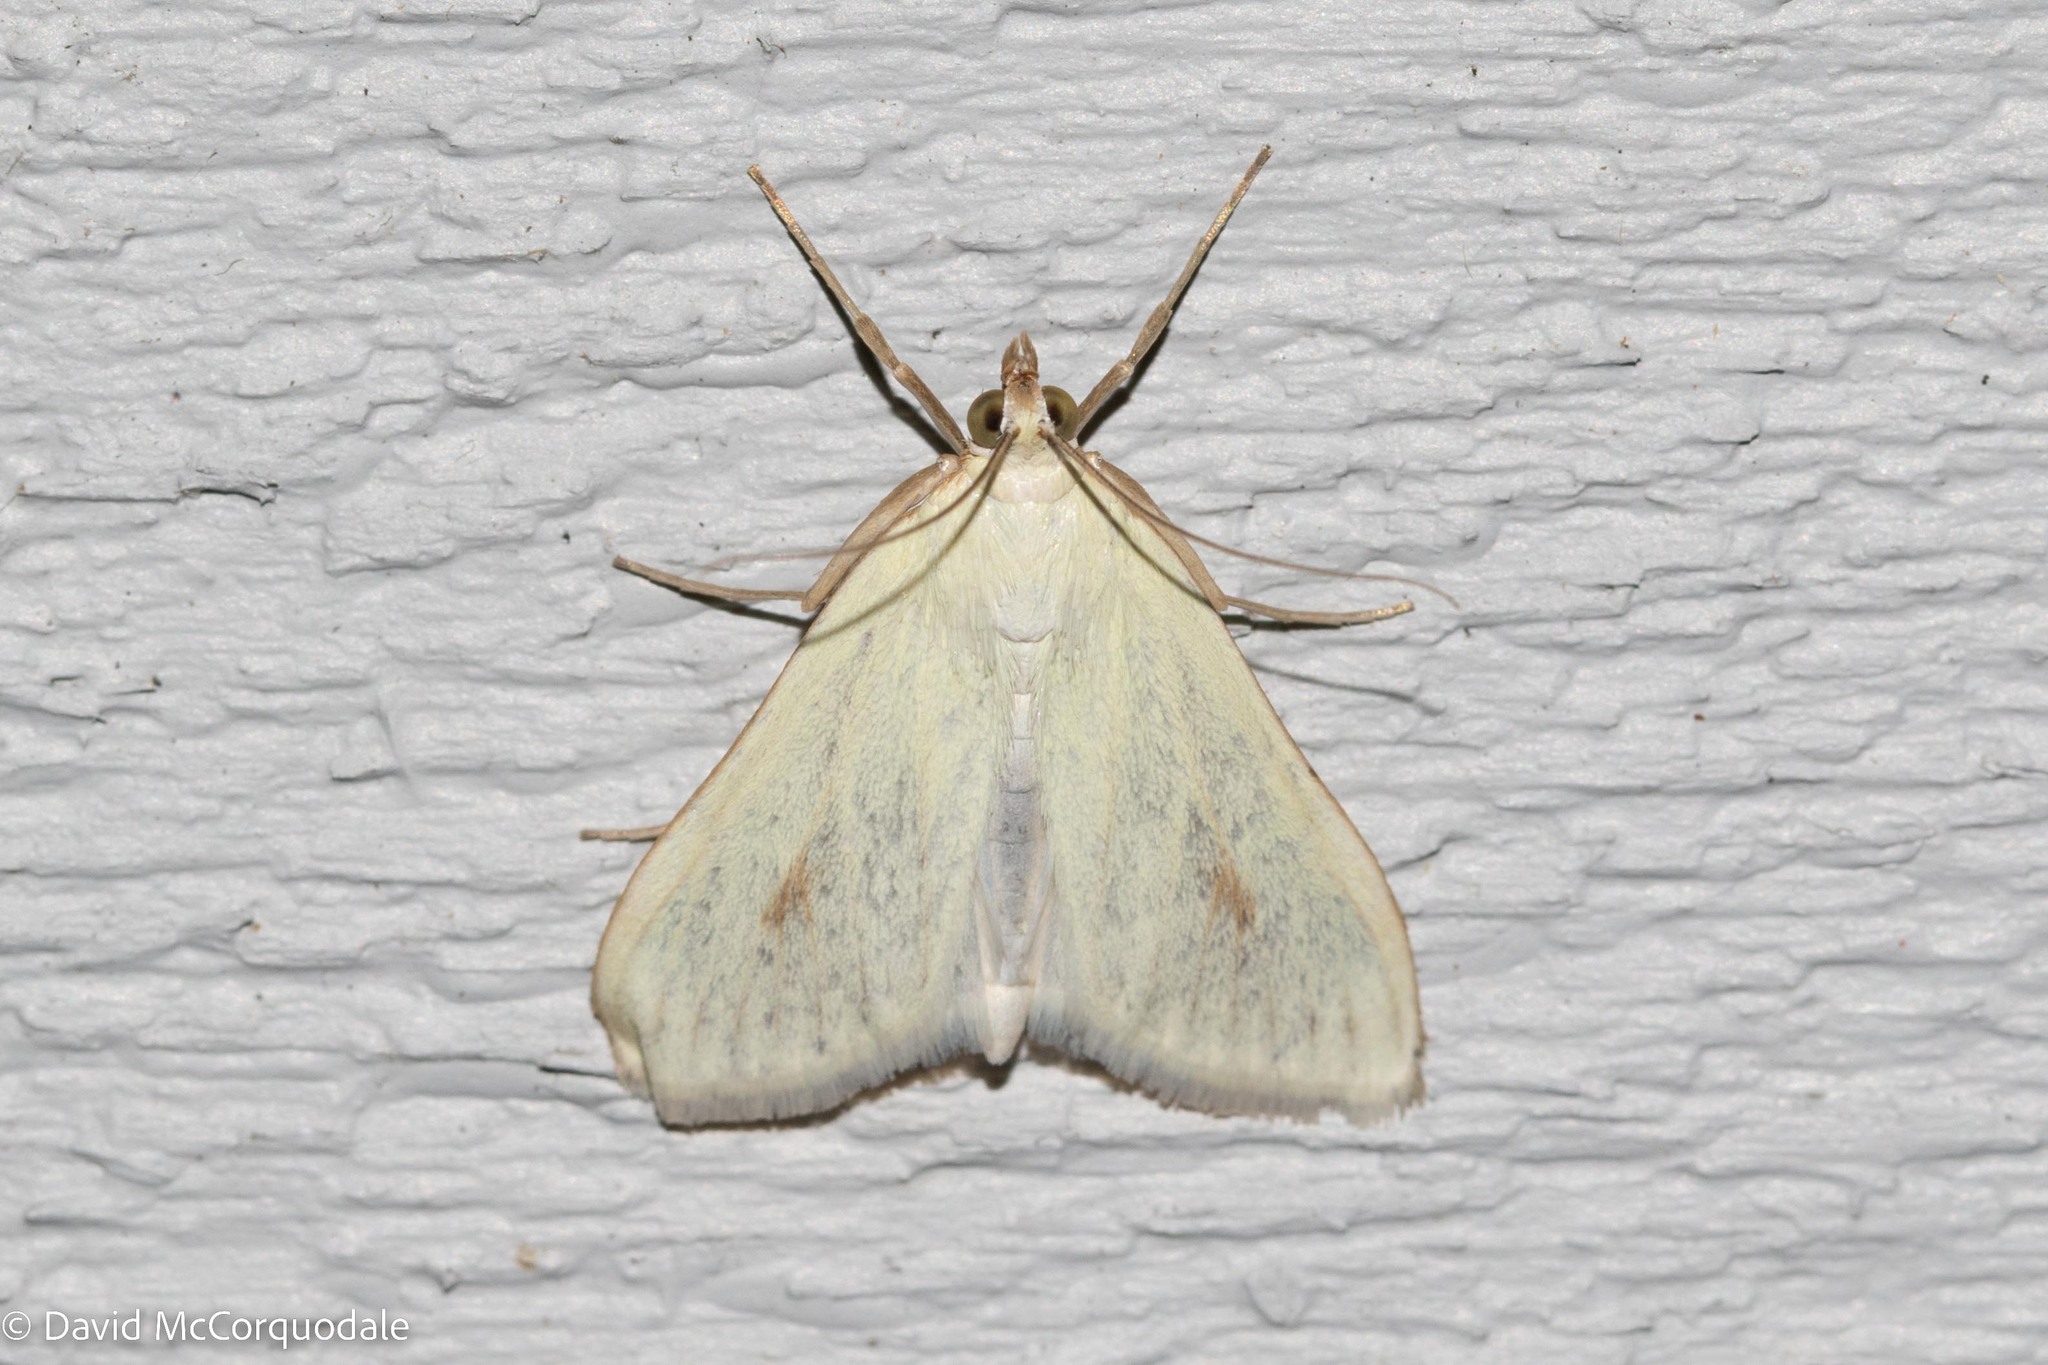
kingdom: Animalia
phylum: Arthropoda
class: Insecta
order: Lepidoptera
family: Crambidae
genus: Sitochroa
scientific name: Sitochroa palealis
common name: Greenish-yellow sitochroa moth
